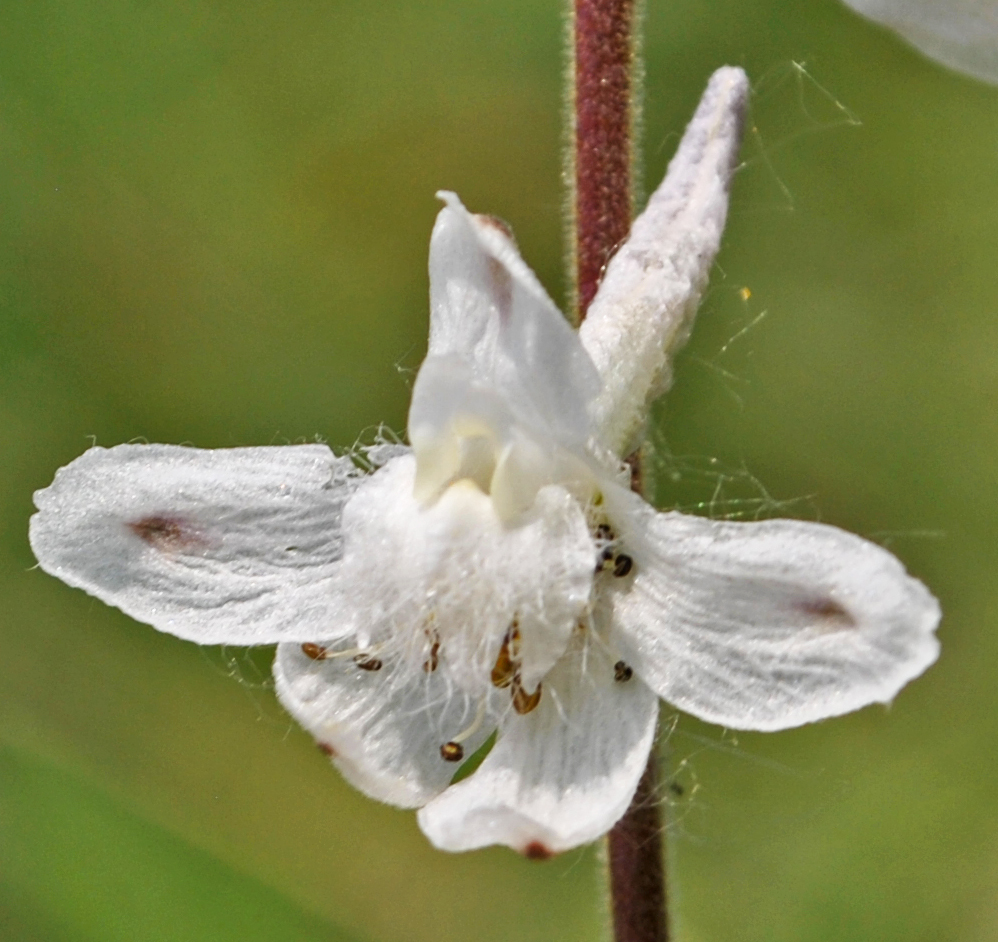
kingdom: Plantae
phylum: Tracheophyta
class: Magnoliopsida
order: Ranunculales
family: Ranunculaceae
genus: Delphinium
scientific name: Delphinium carolinianum
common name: Carolina larkspur
